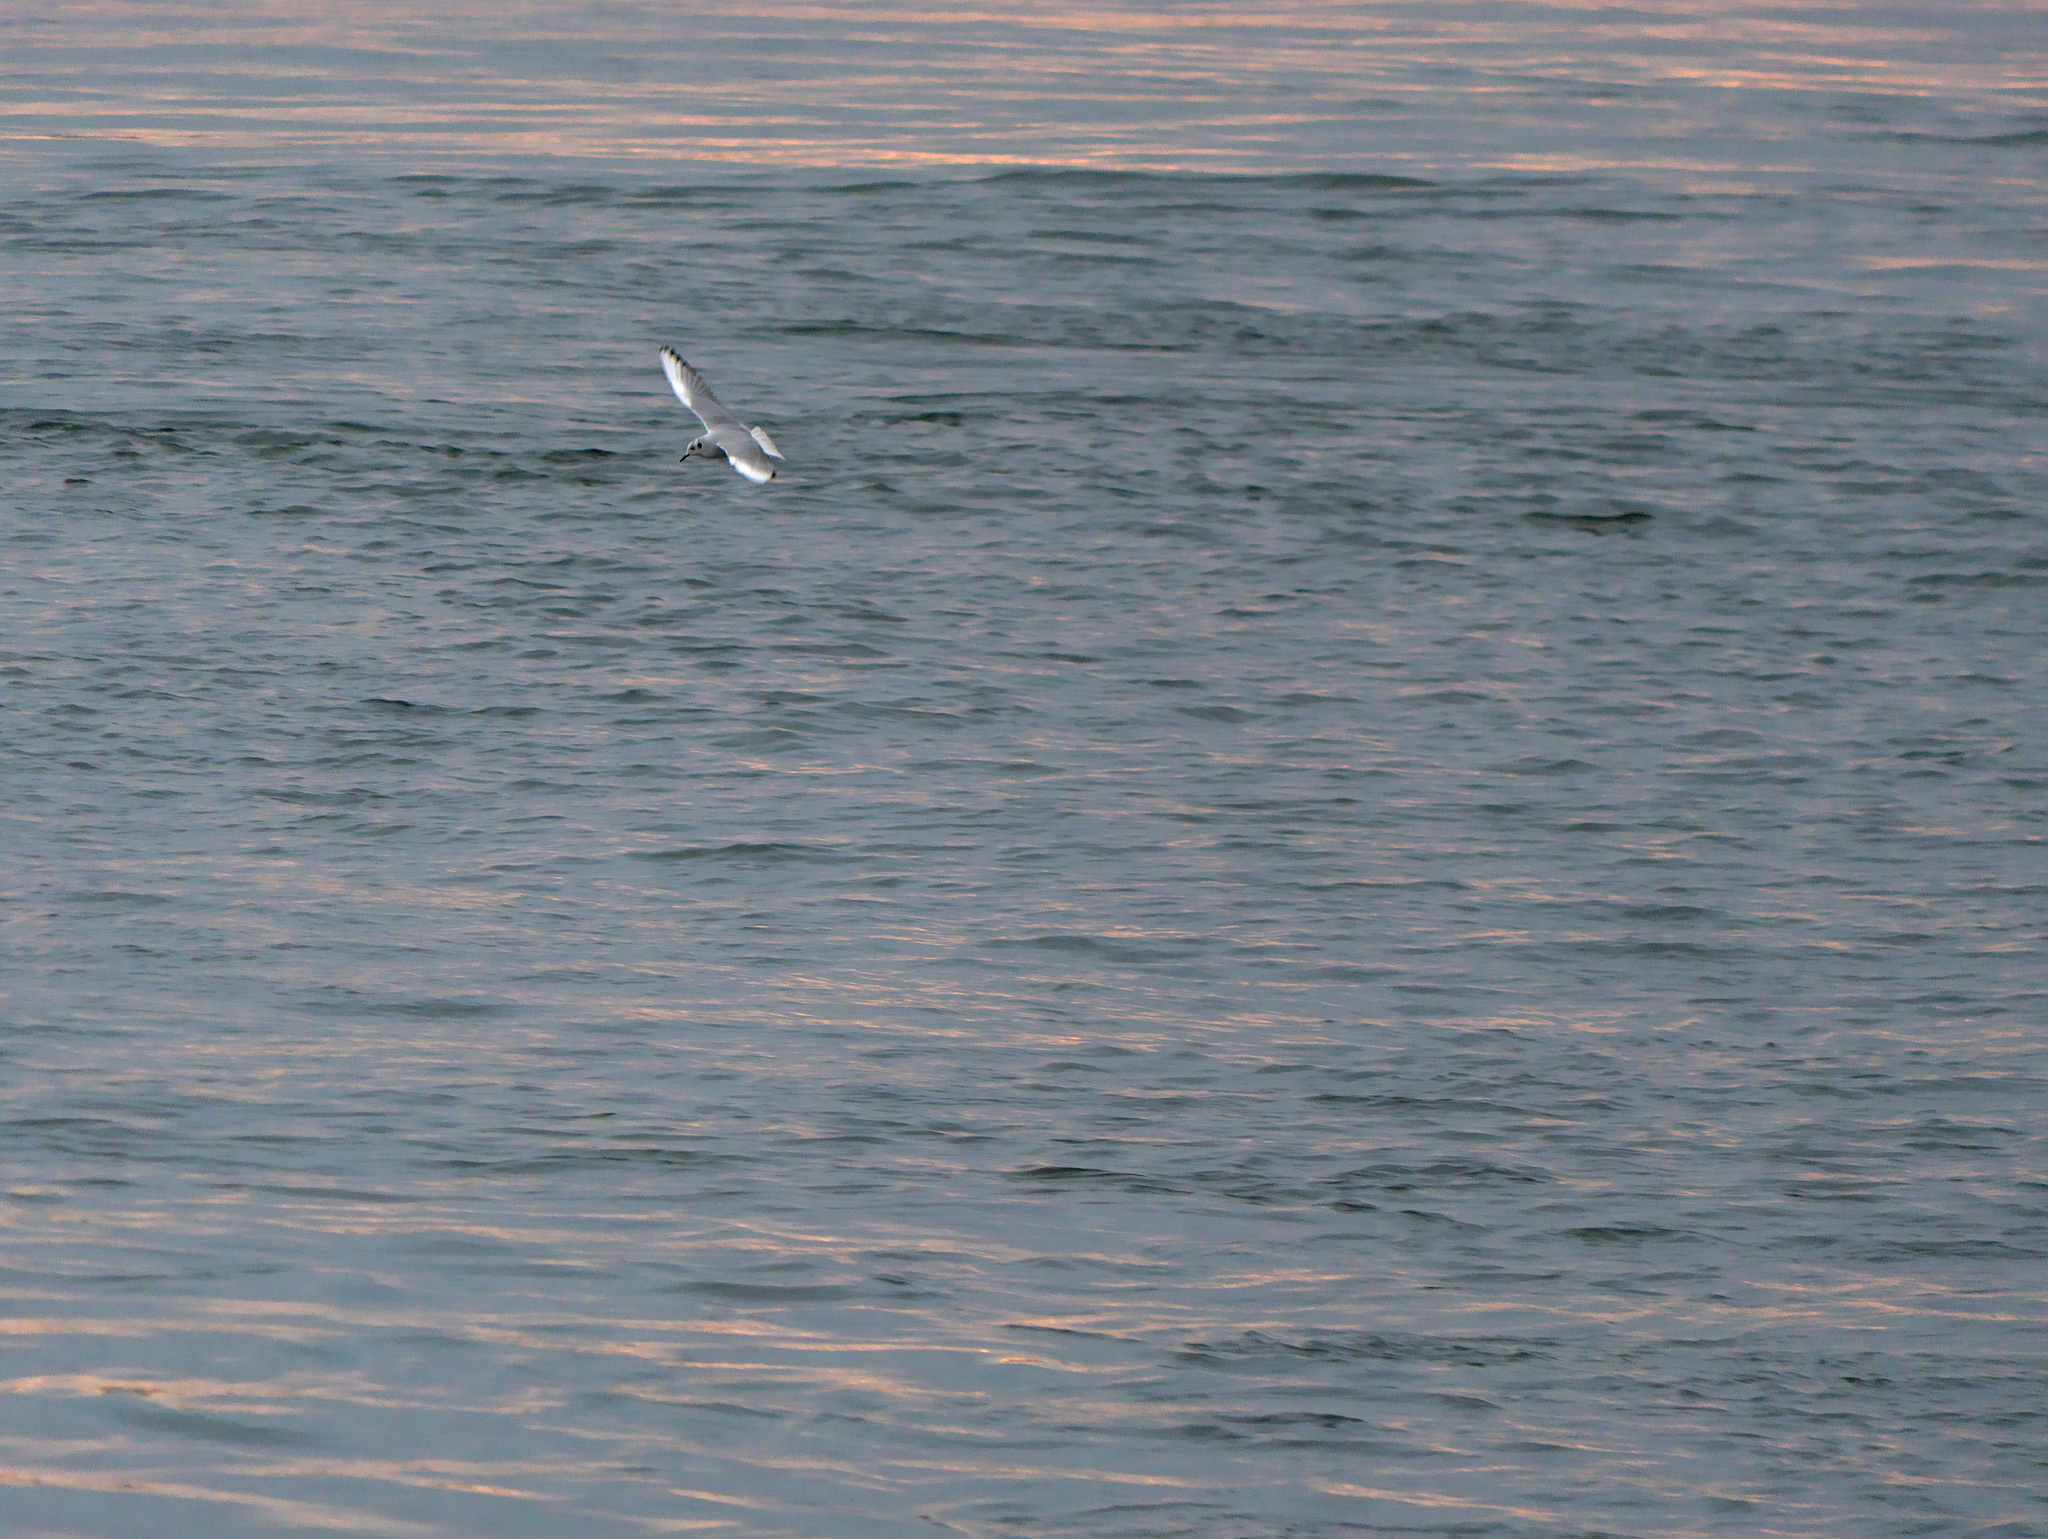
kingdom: Animalia
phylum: Chordata
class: Aves
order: Charadriiformes
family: Laridae
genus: Chroicocephalus
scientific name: Chroicocephalus philadelphia
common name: Bonaparte's gull
